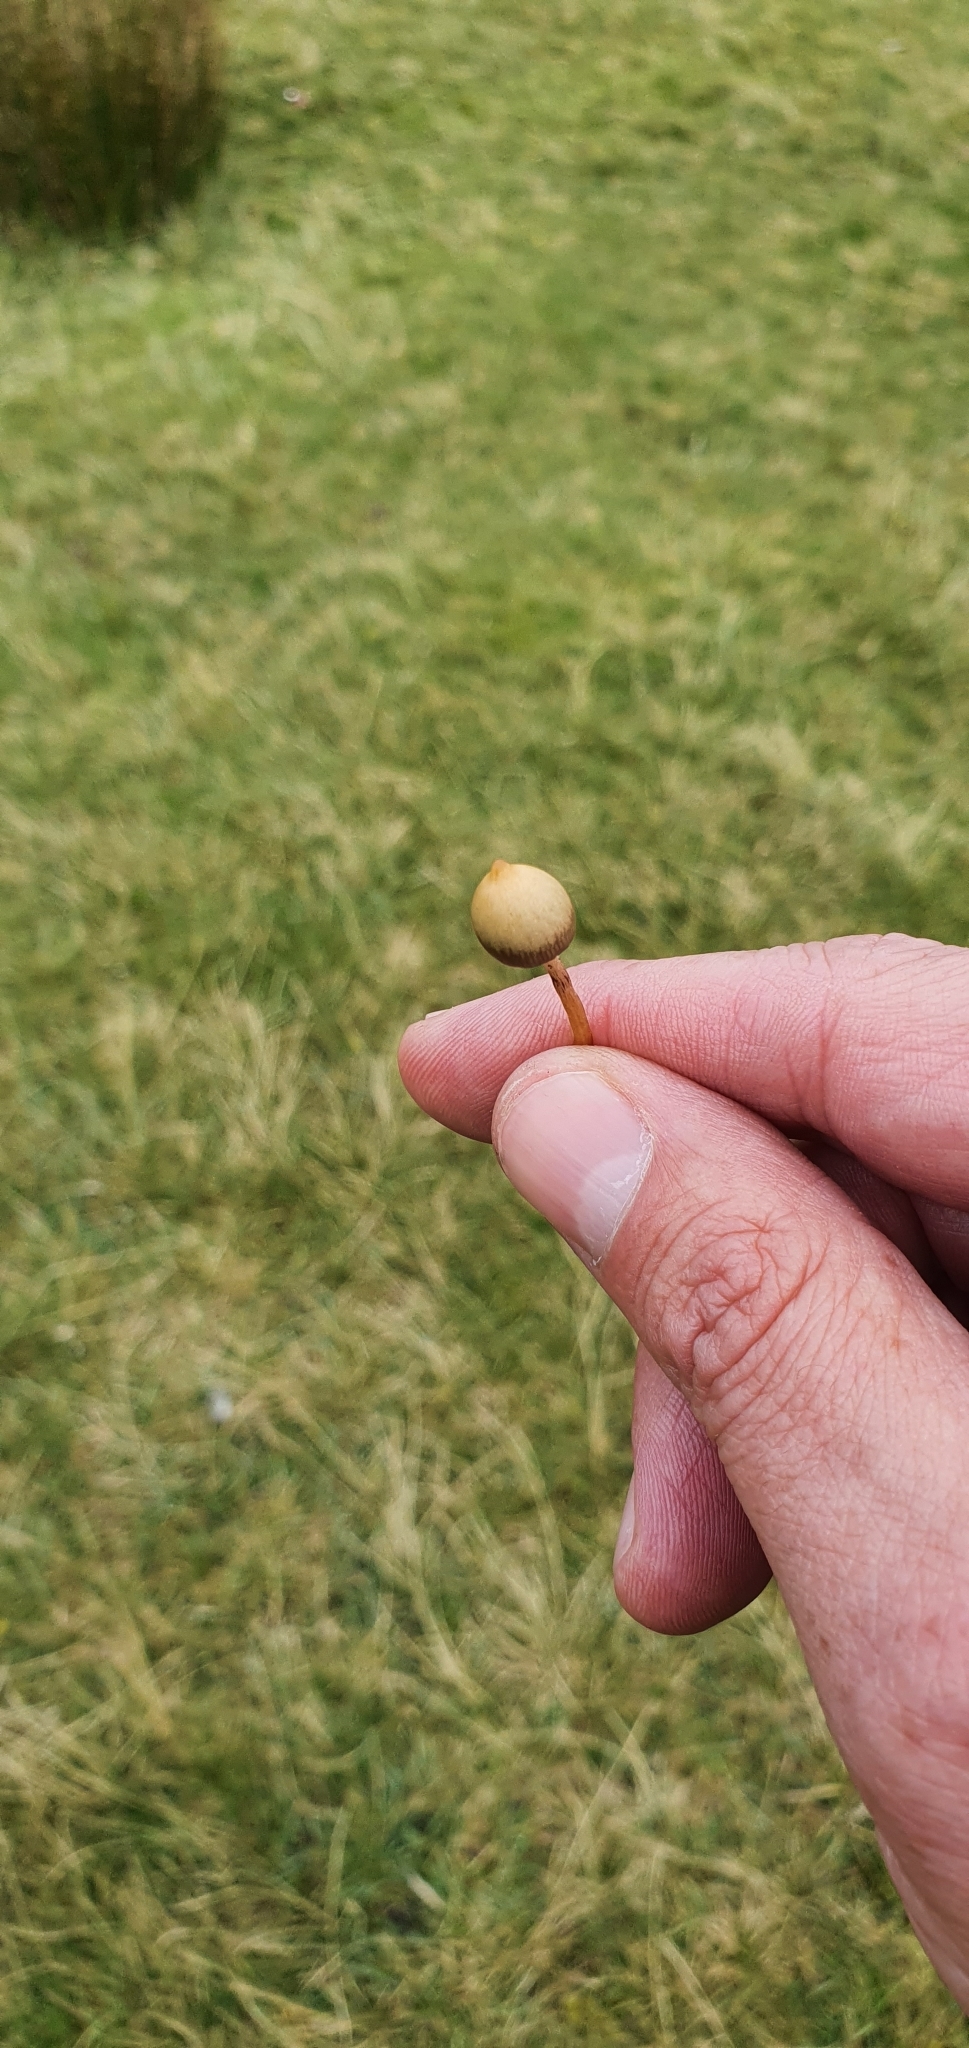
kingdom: Fungi
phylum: Basidiomycota
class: Agaricomycetes
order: Agaricales
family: Hymenogastraceae
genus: Psilocybe
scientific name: Psilocybe semilanceata
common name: Liberty cap
